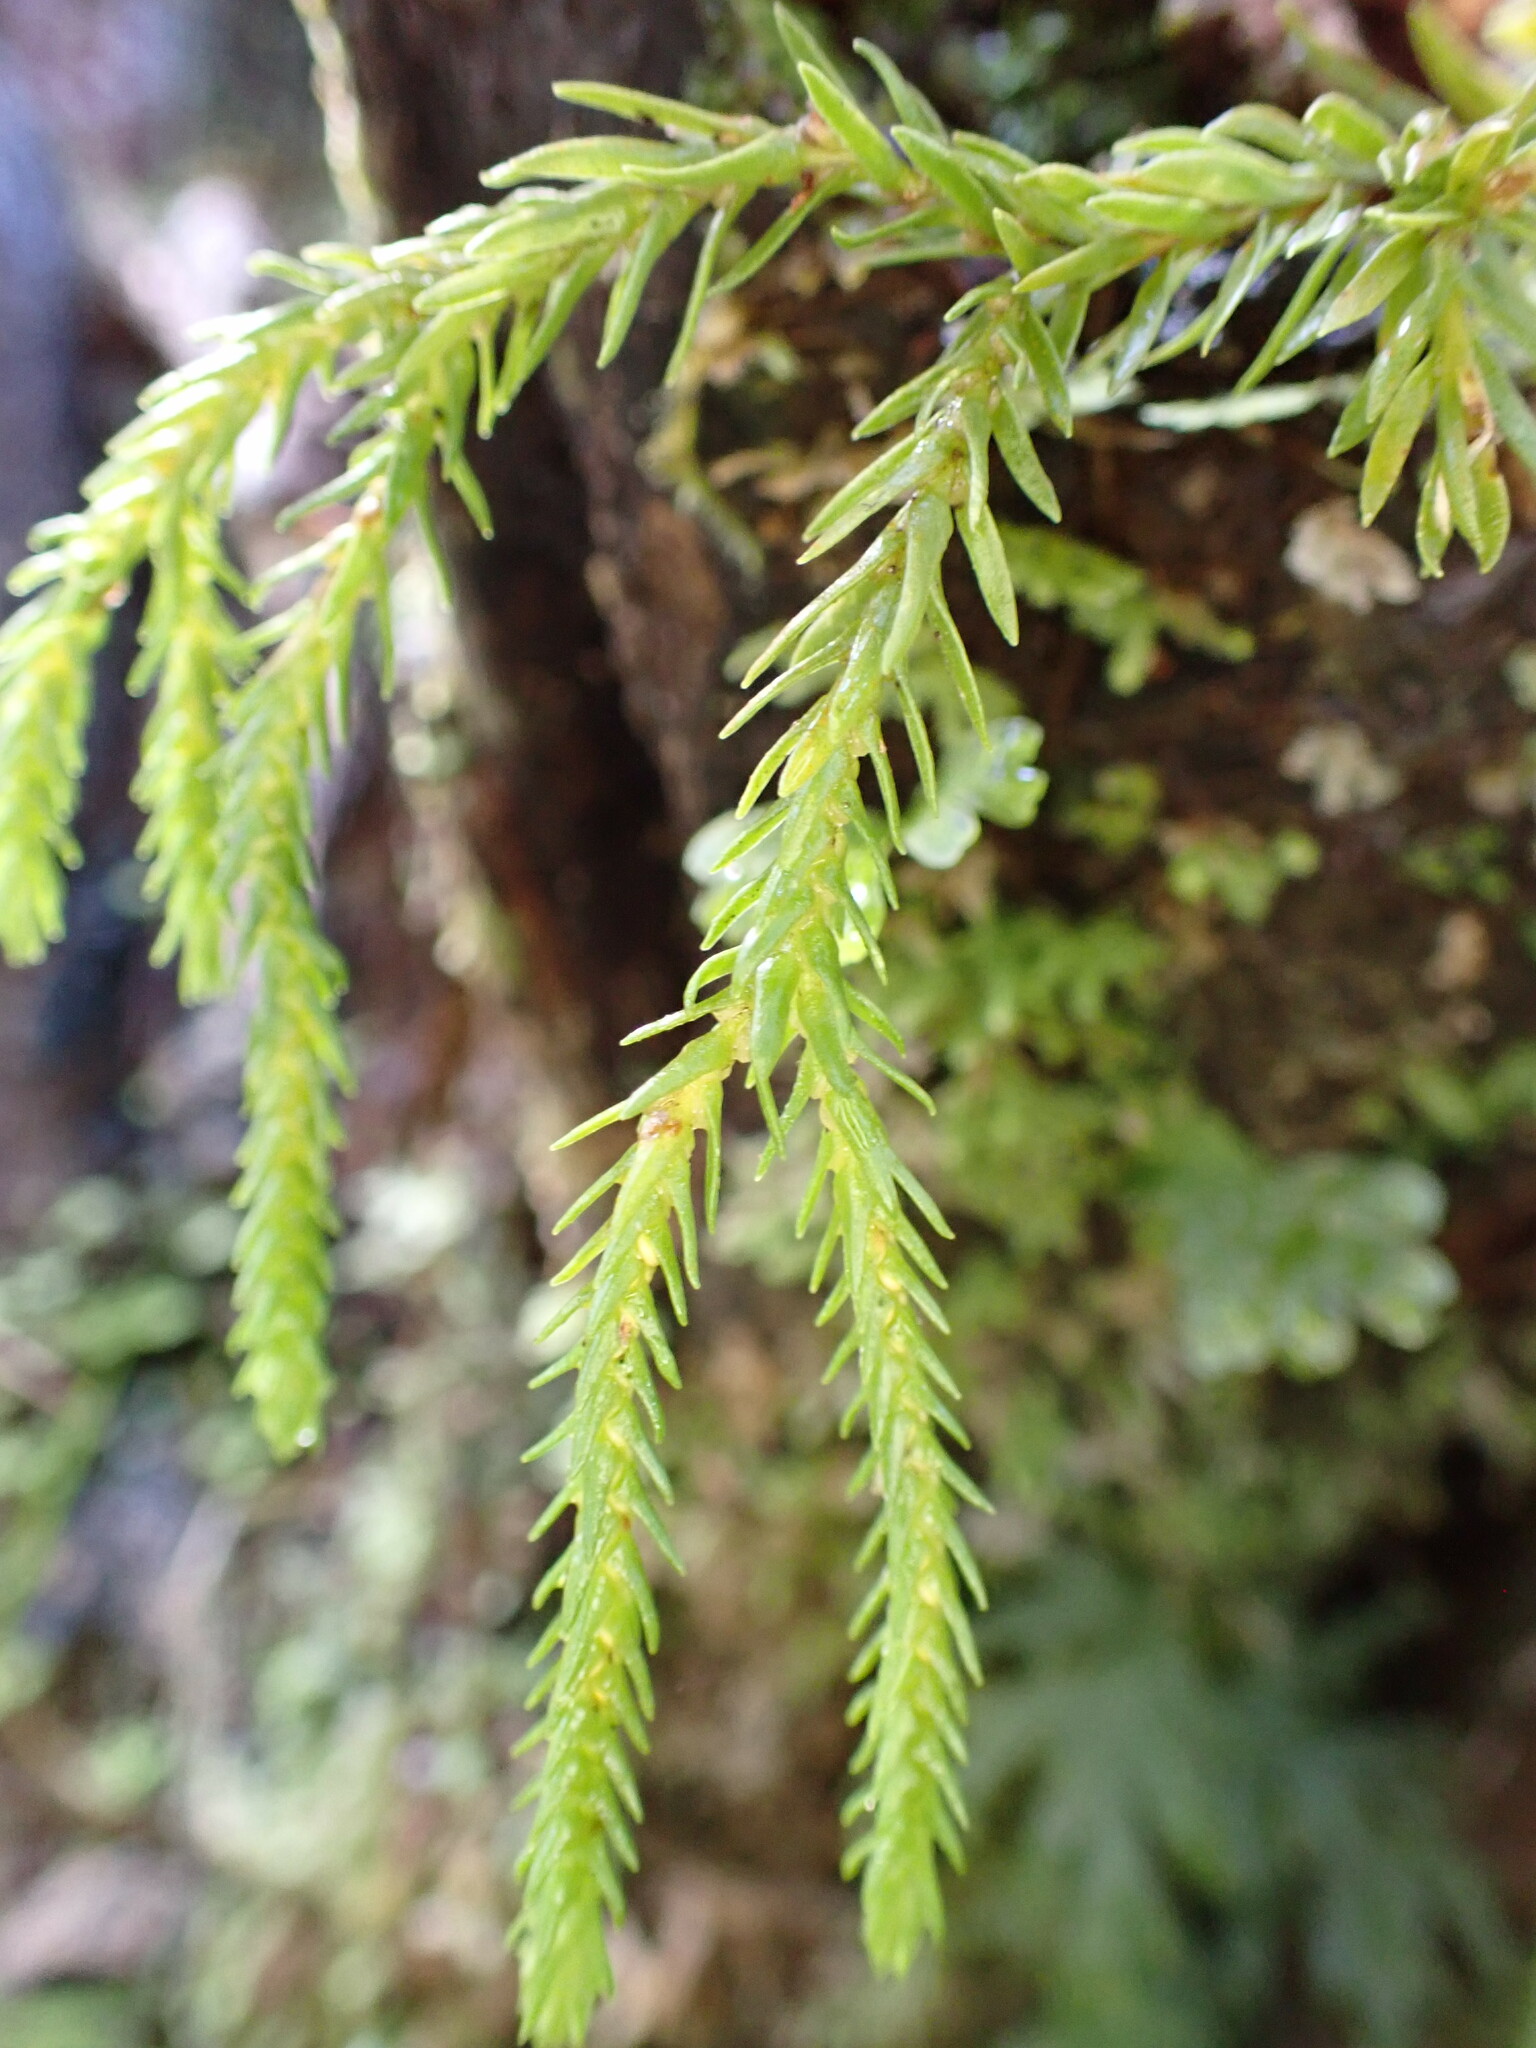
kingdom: Plantae
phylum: Tracheophyta
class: Lycopodiopsida
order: Lycopodiales
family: Lycopodiaceae
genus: Phlegmariurus
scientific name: Phlegmariurus varius
